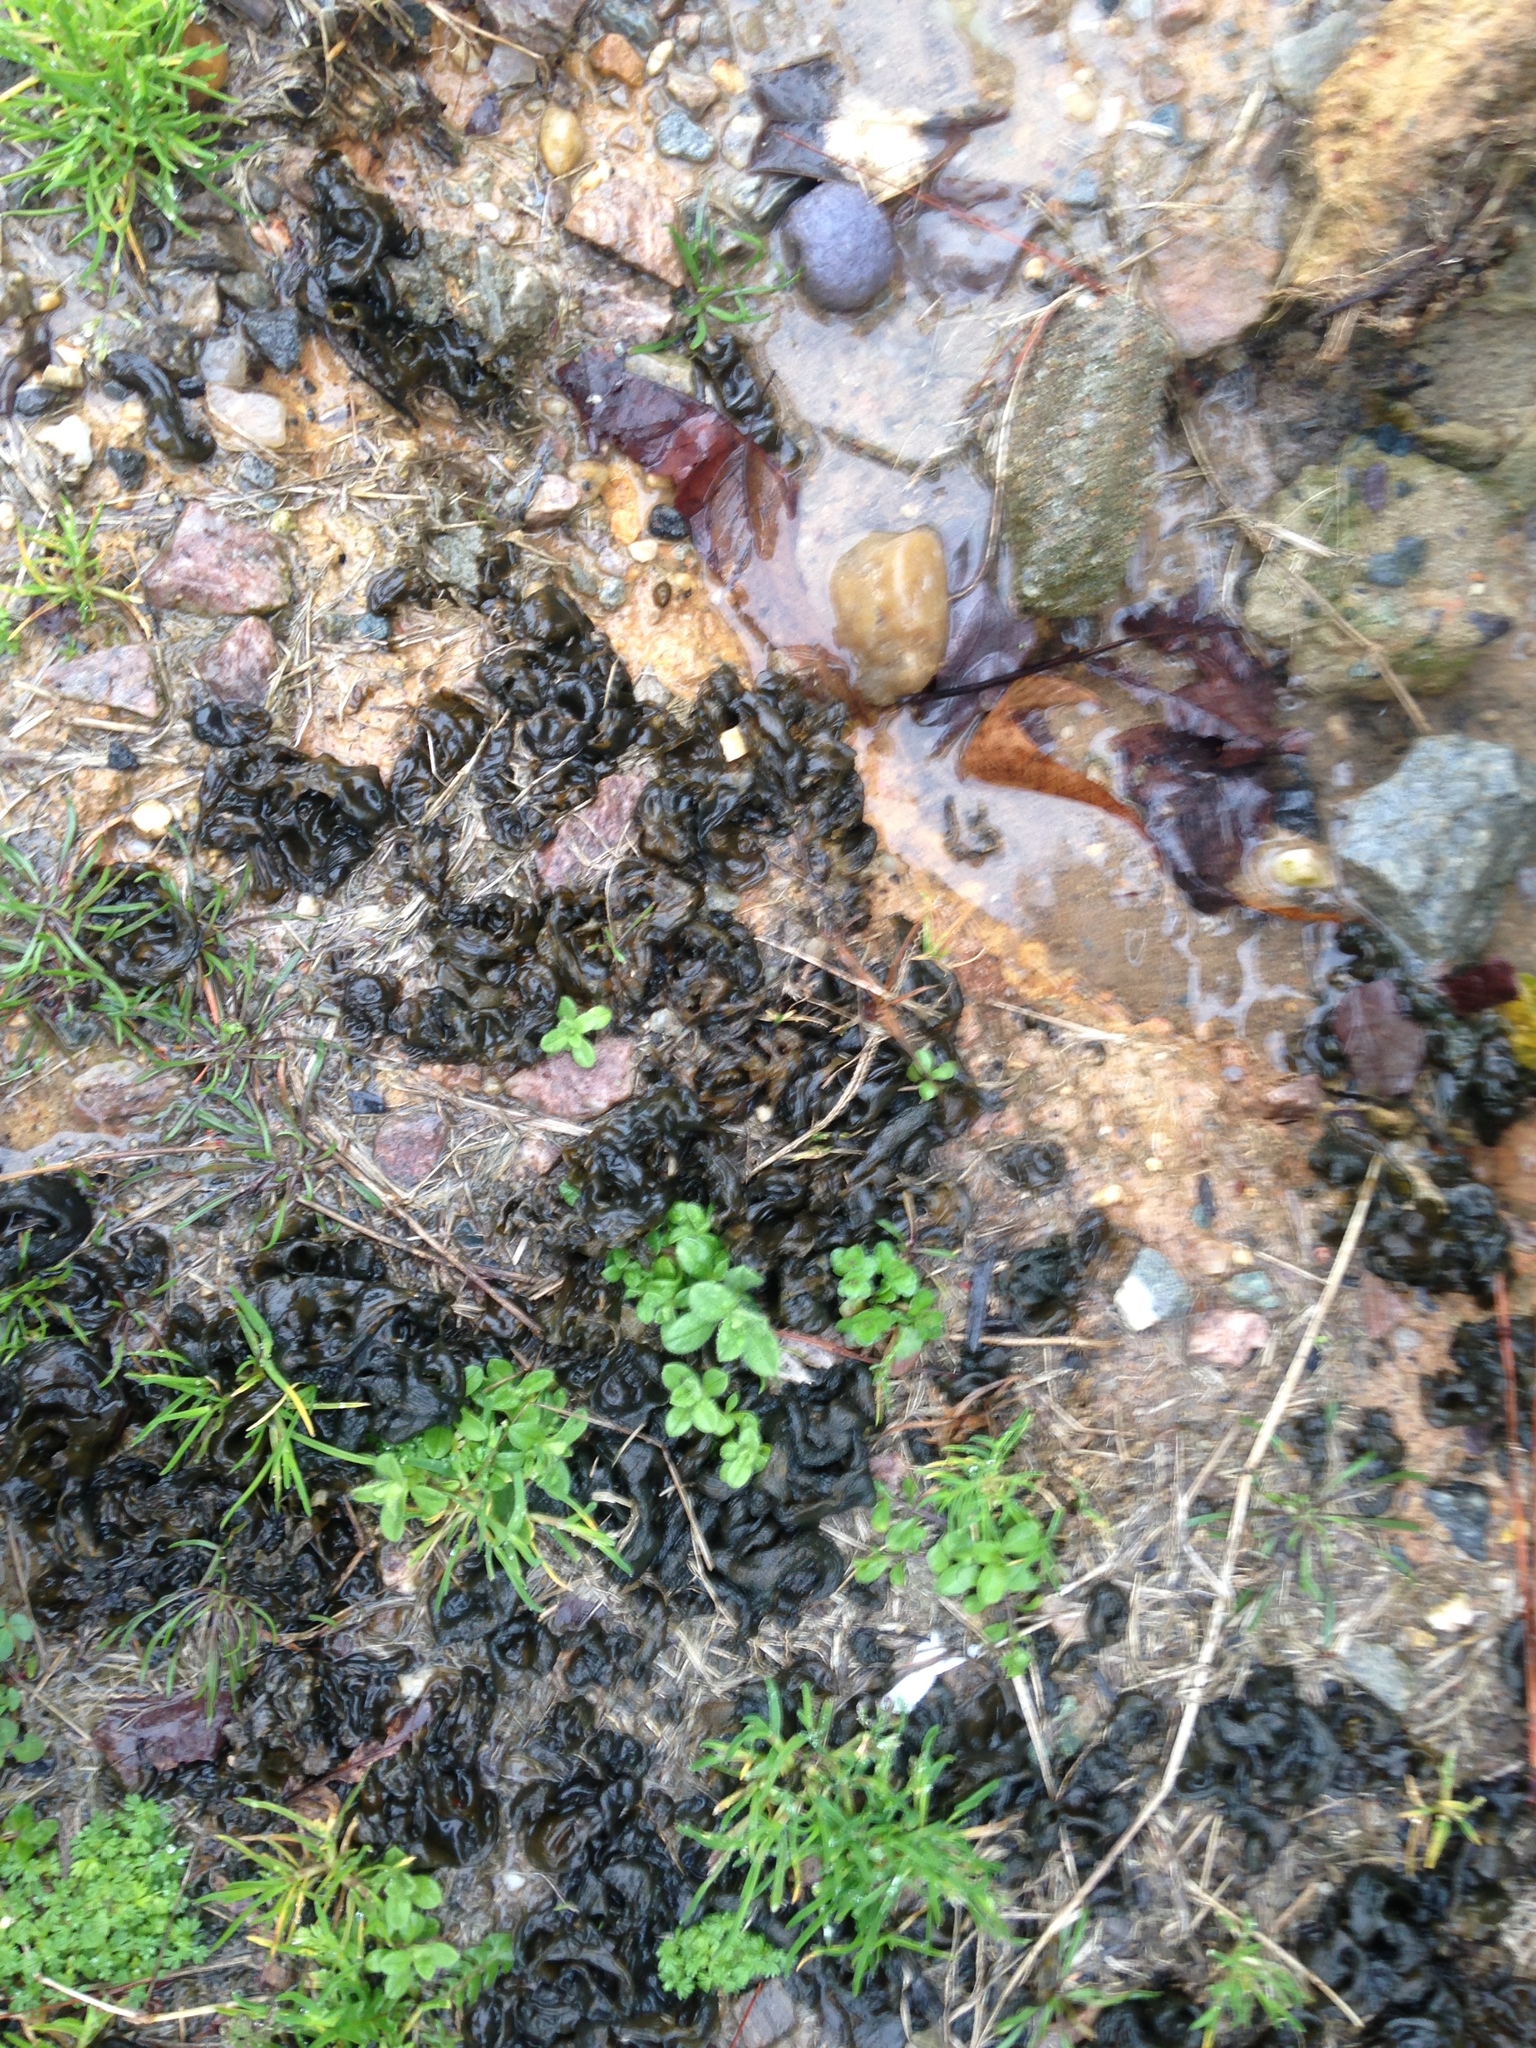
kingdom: Bacteria
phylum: Cyanobacteria
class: Cyanobacteriia
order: Cyanobacteriales
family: Nostocaceae
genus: Nostoc
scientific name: Nostoc commune
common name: Star jelly
